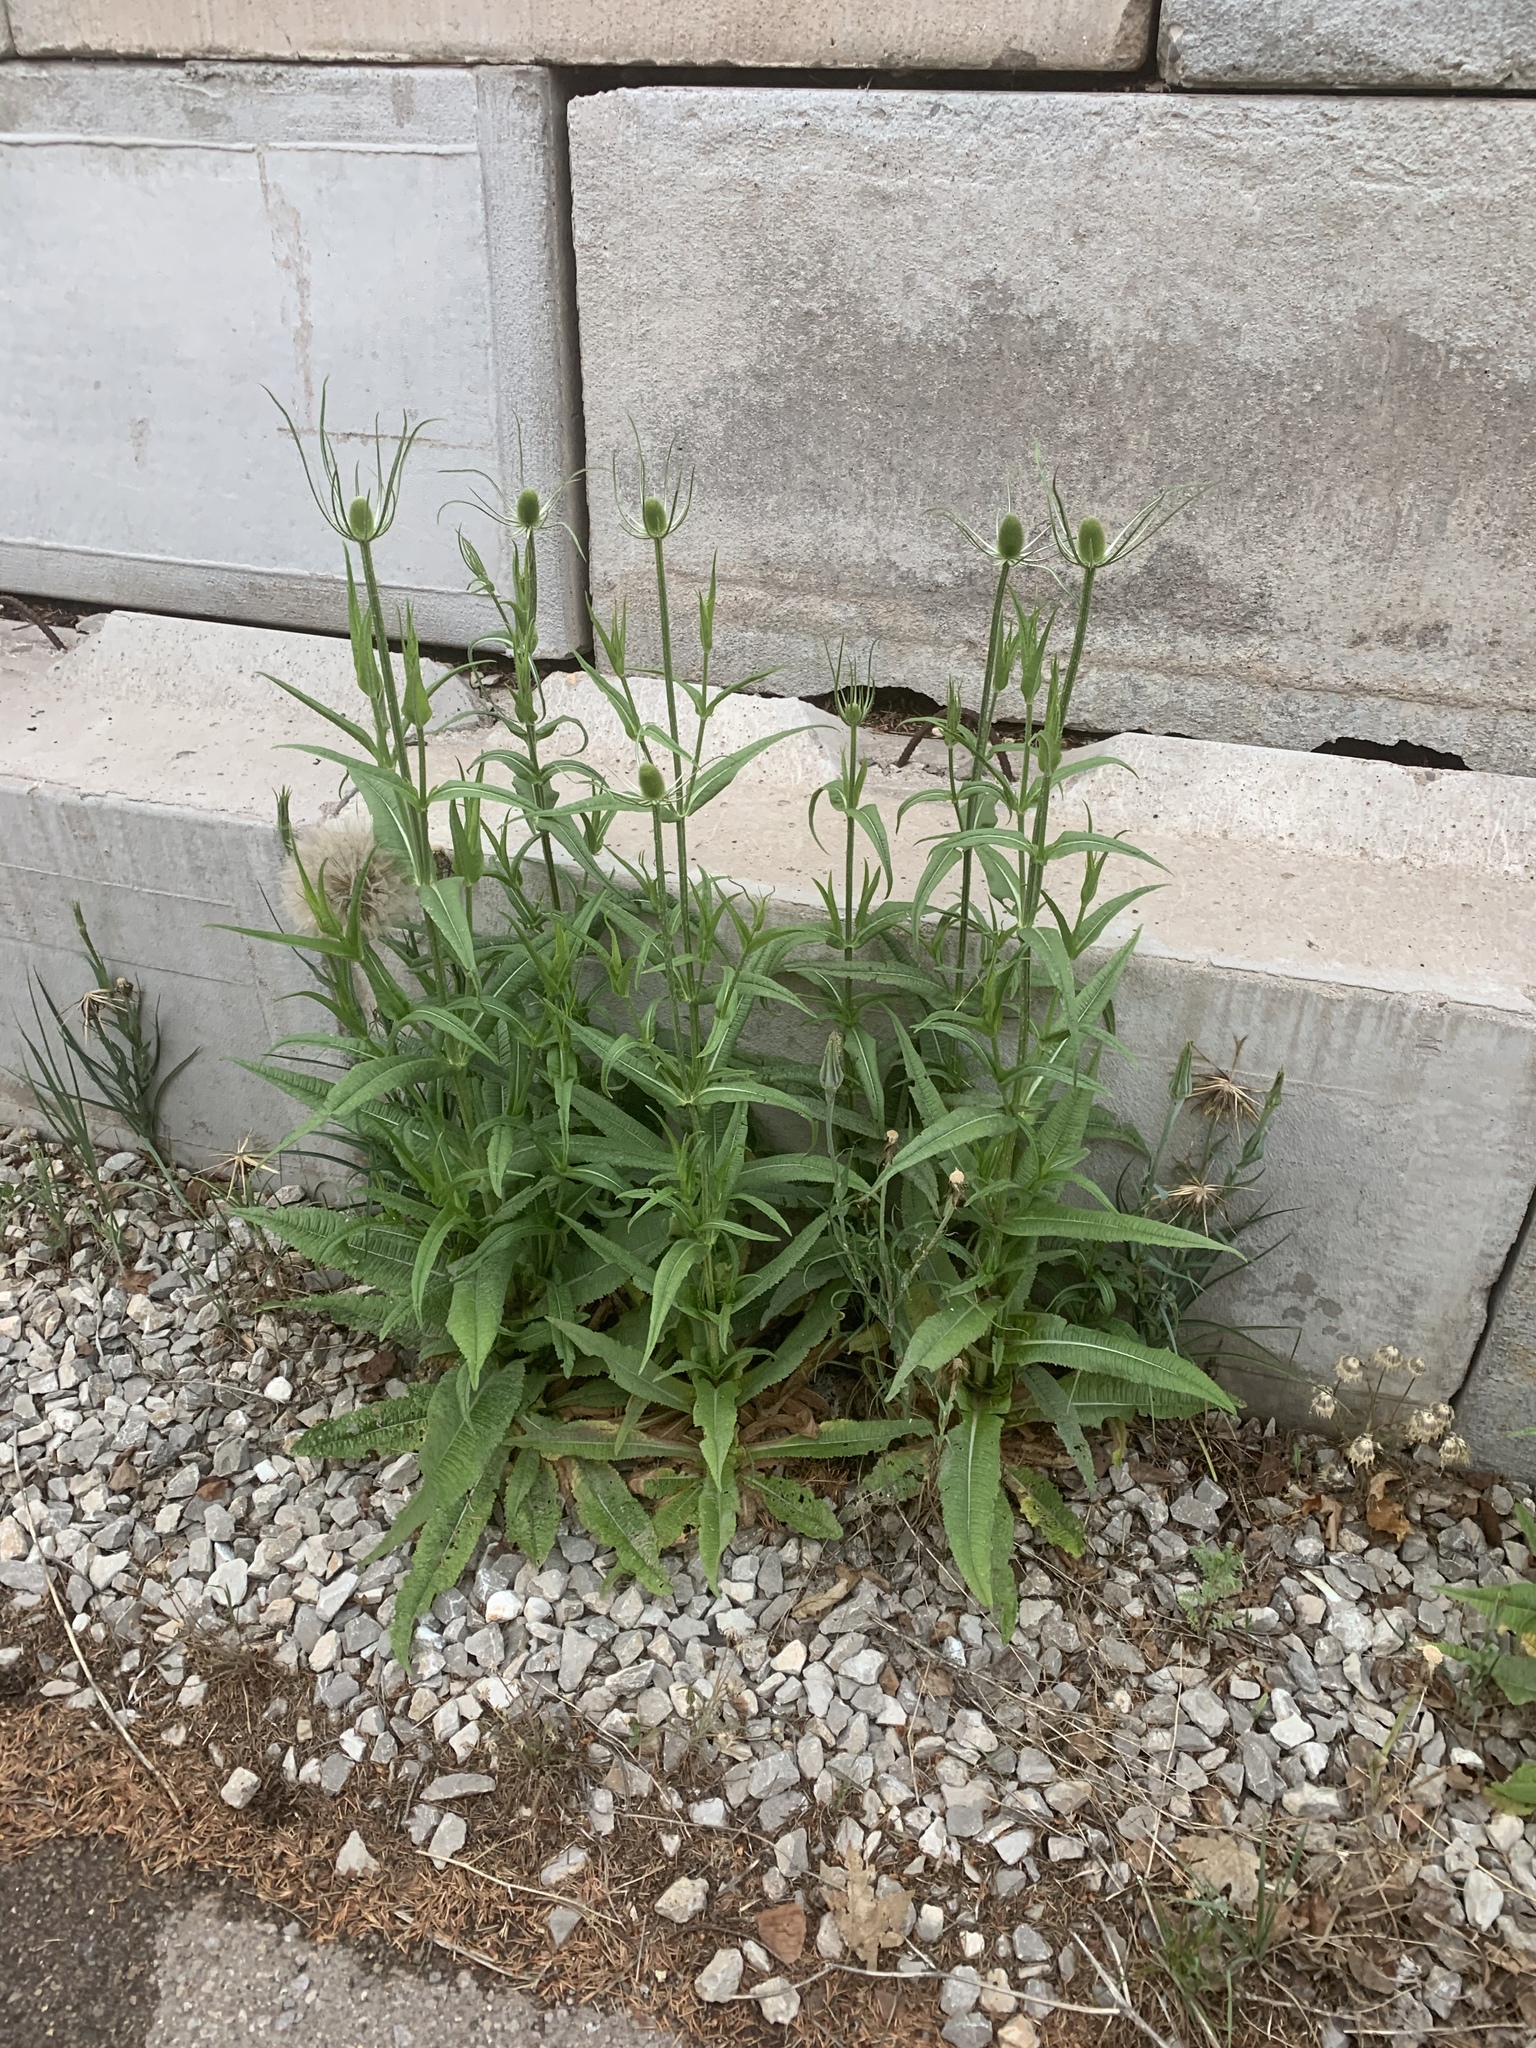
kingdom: Plantae
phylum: Tracheophyta
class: Magnoliopsida
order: Dipsacales
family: Caprifoliaceae
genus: Dipsacus
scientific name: Dipsacus fullonum
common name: Teasel
